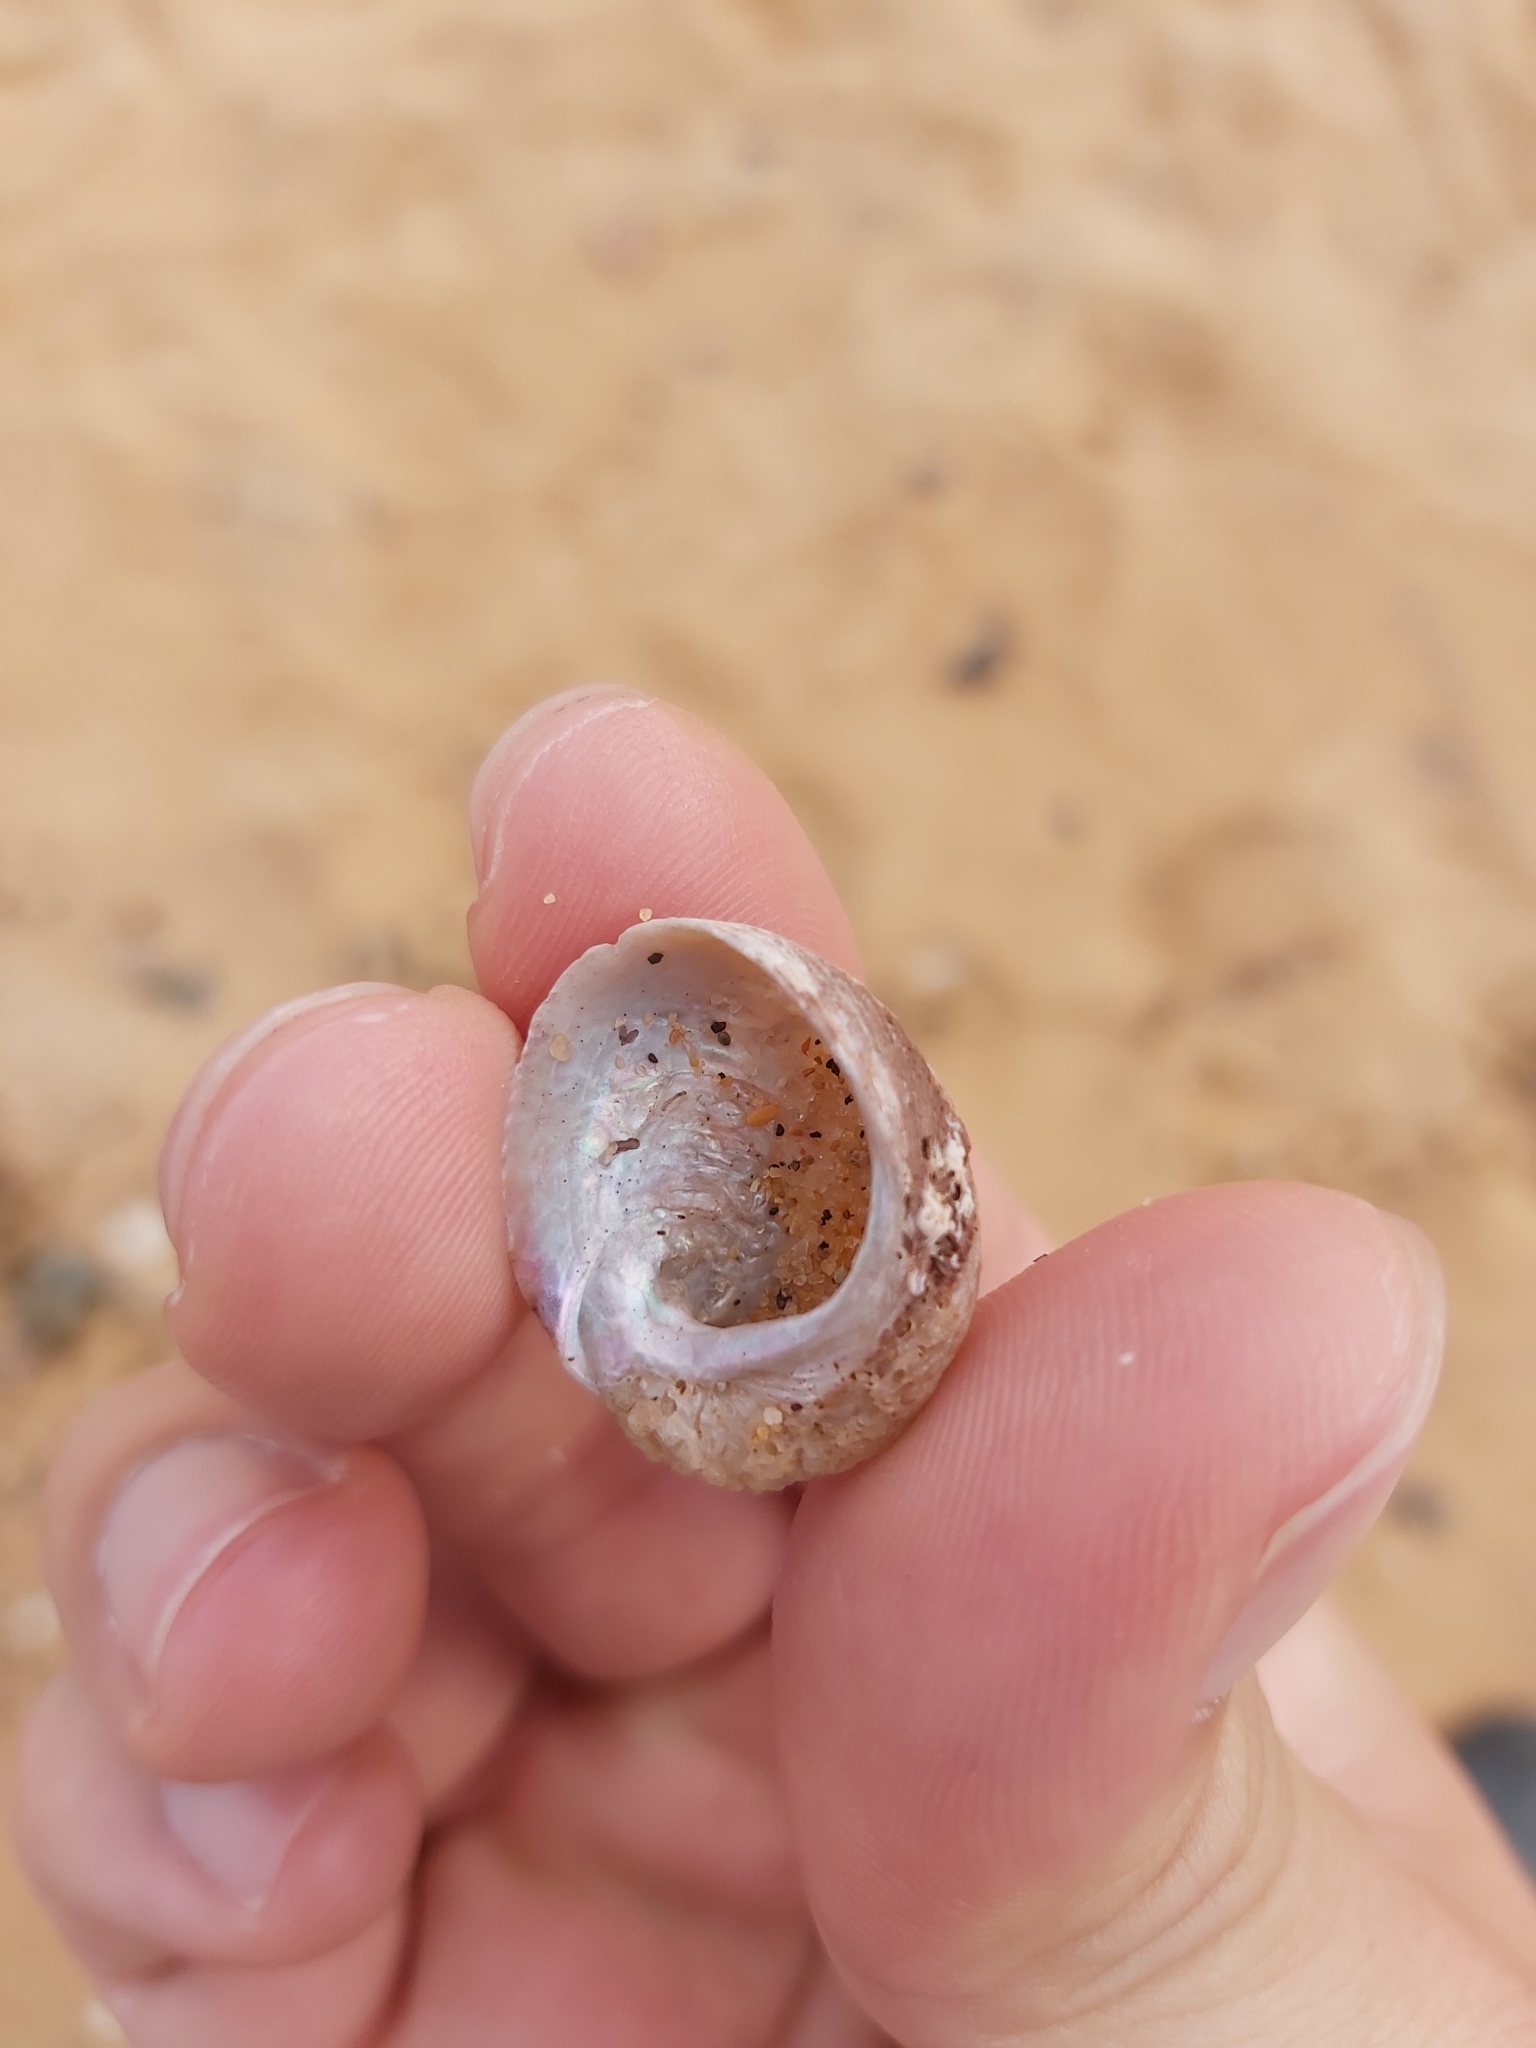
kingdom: Animalia
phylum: Mollusca
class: Gastropoda
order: Seguenziida
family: Chilodontaidae
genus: Granata
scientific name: Granata imbricata
